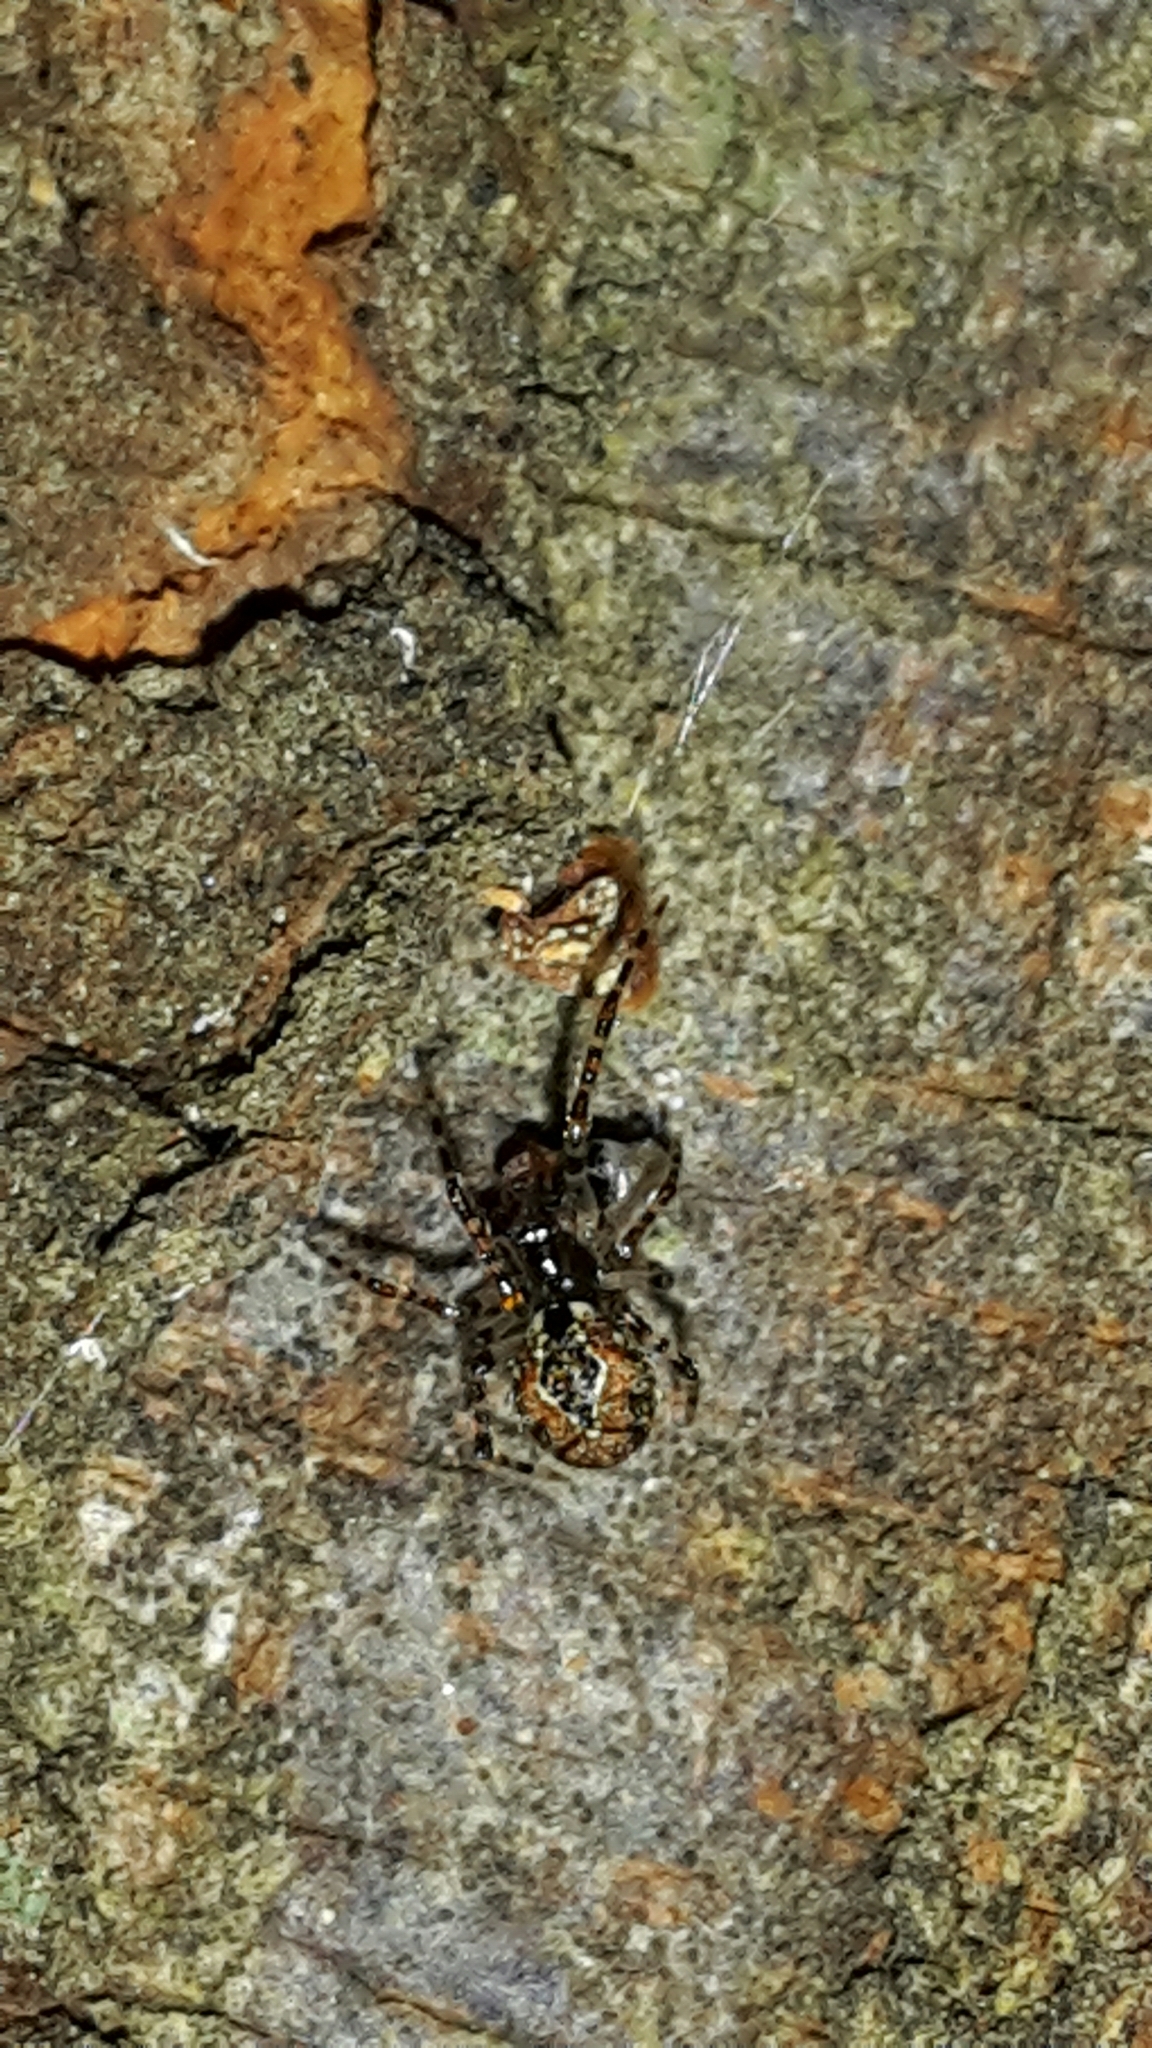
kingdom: Animalia
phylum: Arthropoda
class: Arachnida
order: Araneae
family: Theridiidae
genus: Cryptachaea
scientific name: Cryptachaea veruculata
